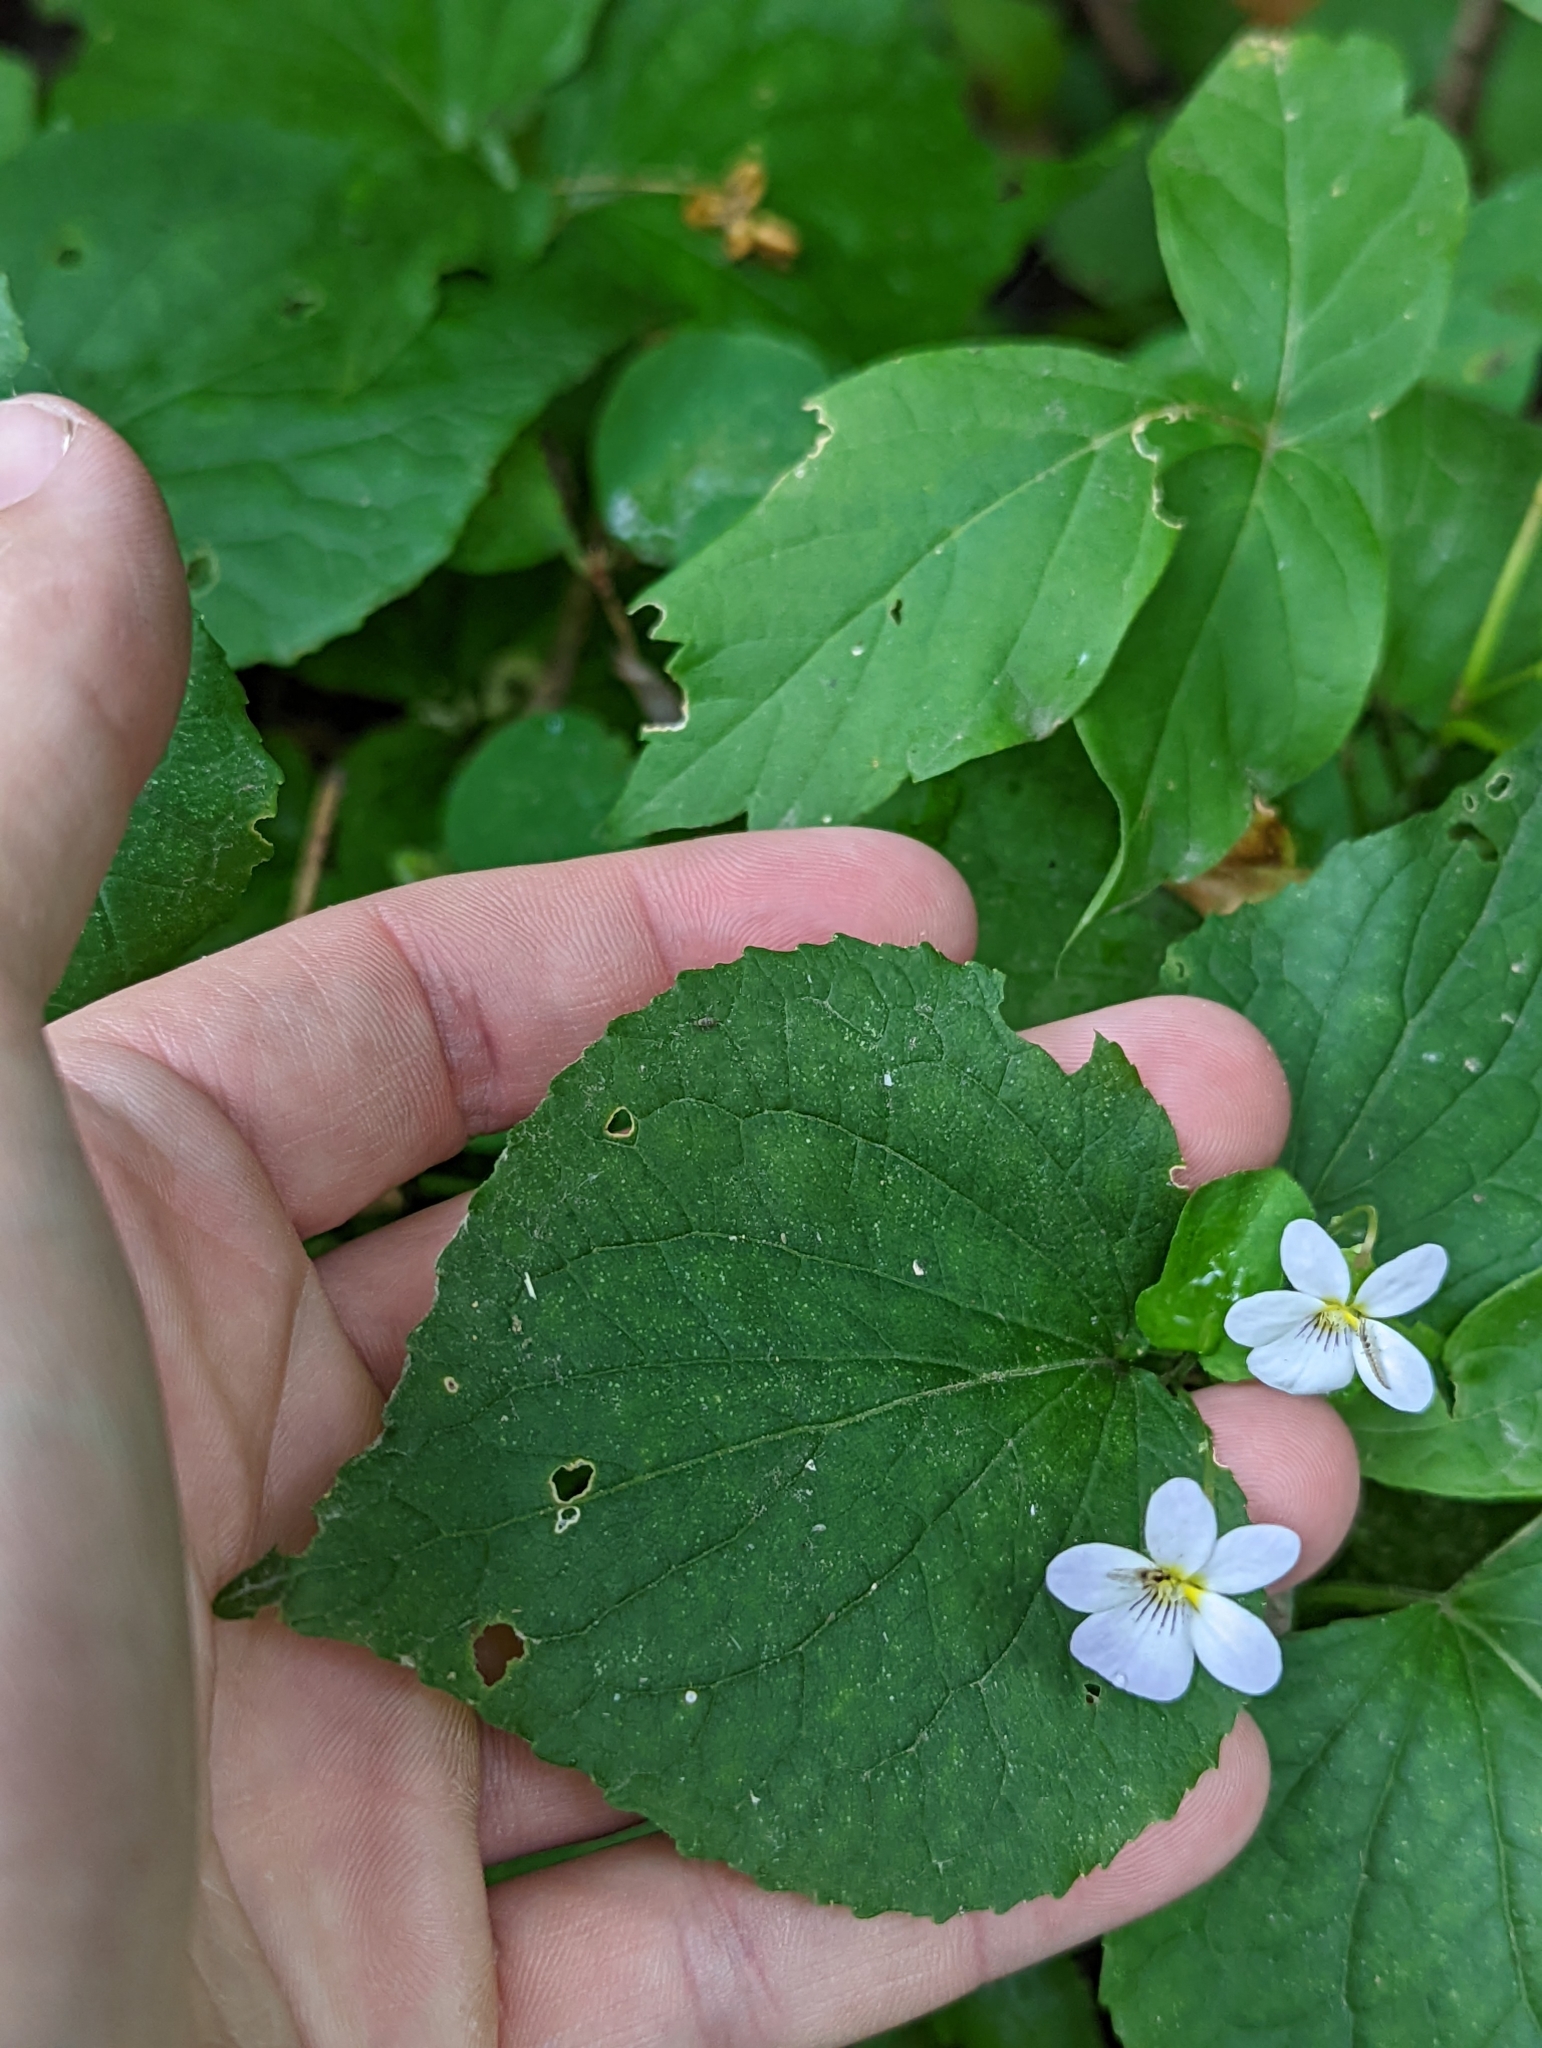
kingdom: Plantae
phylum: Tracheophyta
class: Magnoliopsida
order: Malpighiales
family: Violaceae
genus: Viola
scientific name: Viola canadensis
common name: Canada violet
